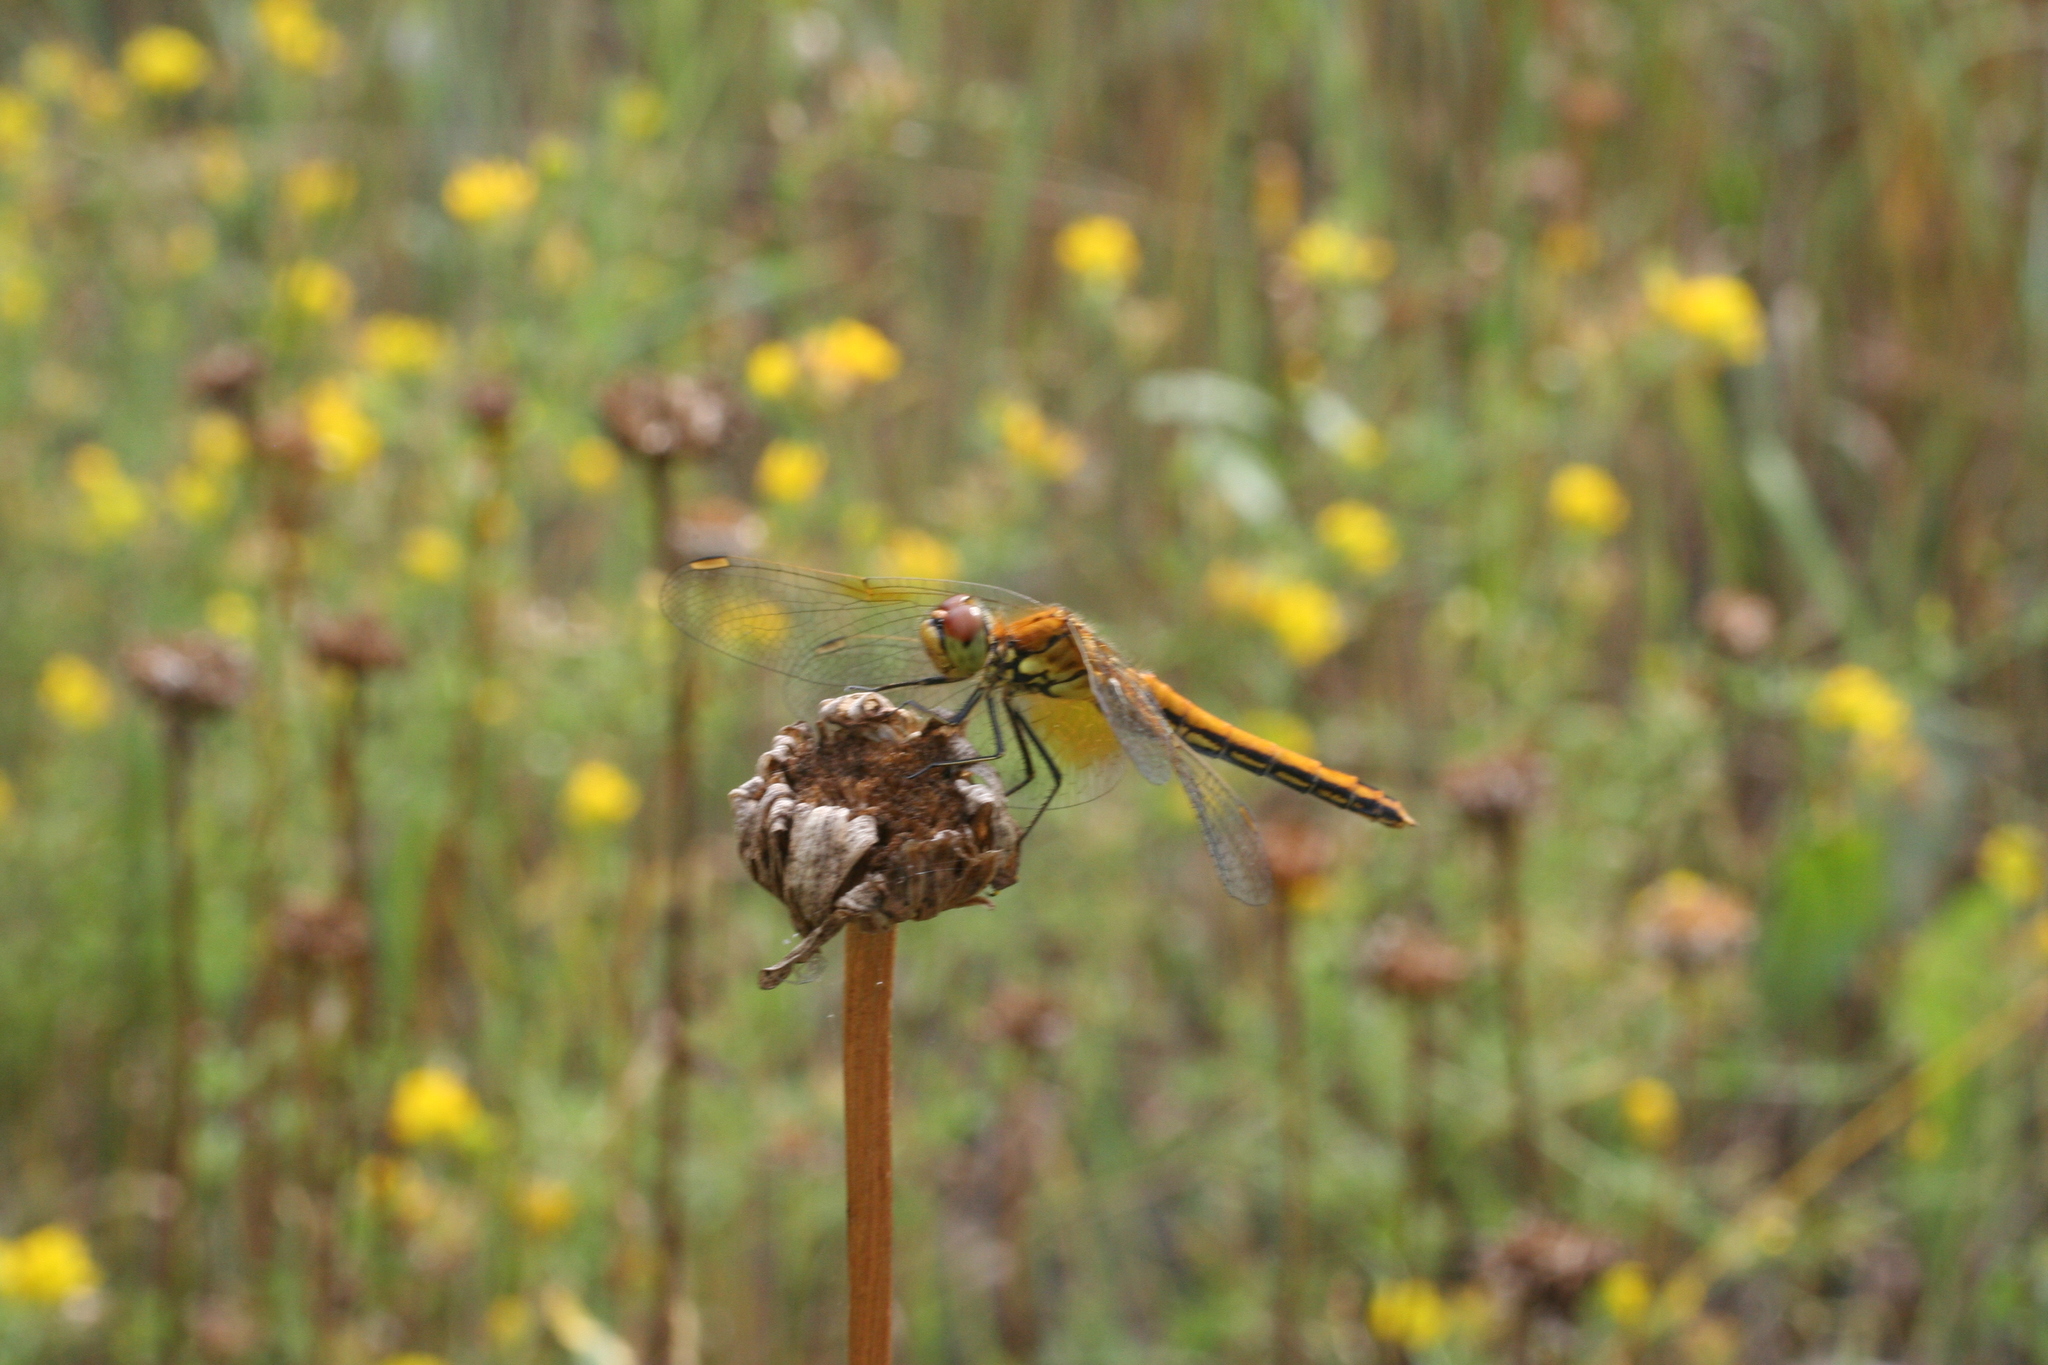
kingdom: Animalia
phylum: Arthropoda
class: Insecta
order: Odonata
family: Libellulidae
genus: Sympetrum
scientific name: Sympetrum flaveolum
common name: Yellow-winged darter
